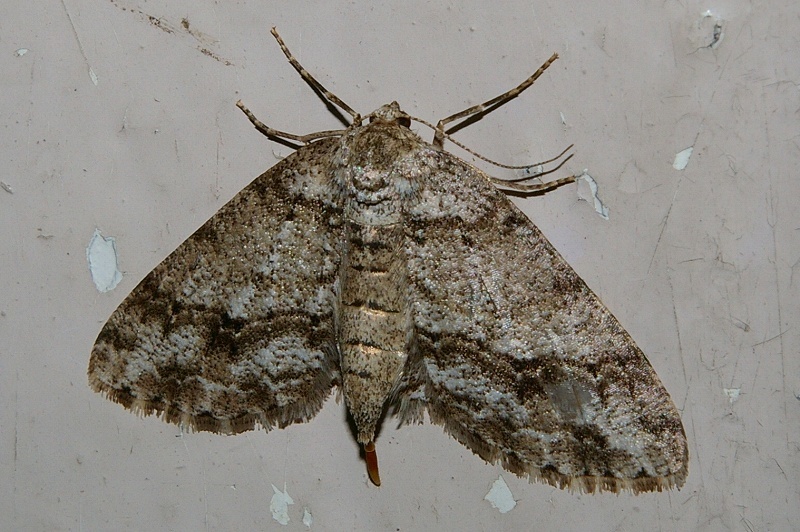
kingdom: Animalia
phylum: Arthropoda
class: Insecta
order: Lepidoptera
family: Geometridae
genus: Ectropis
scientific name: Ectropis obliqua
